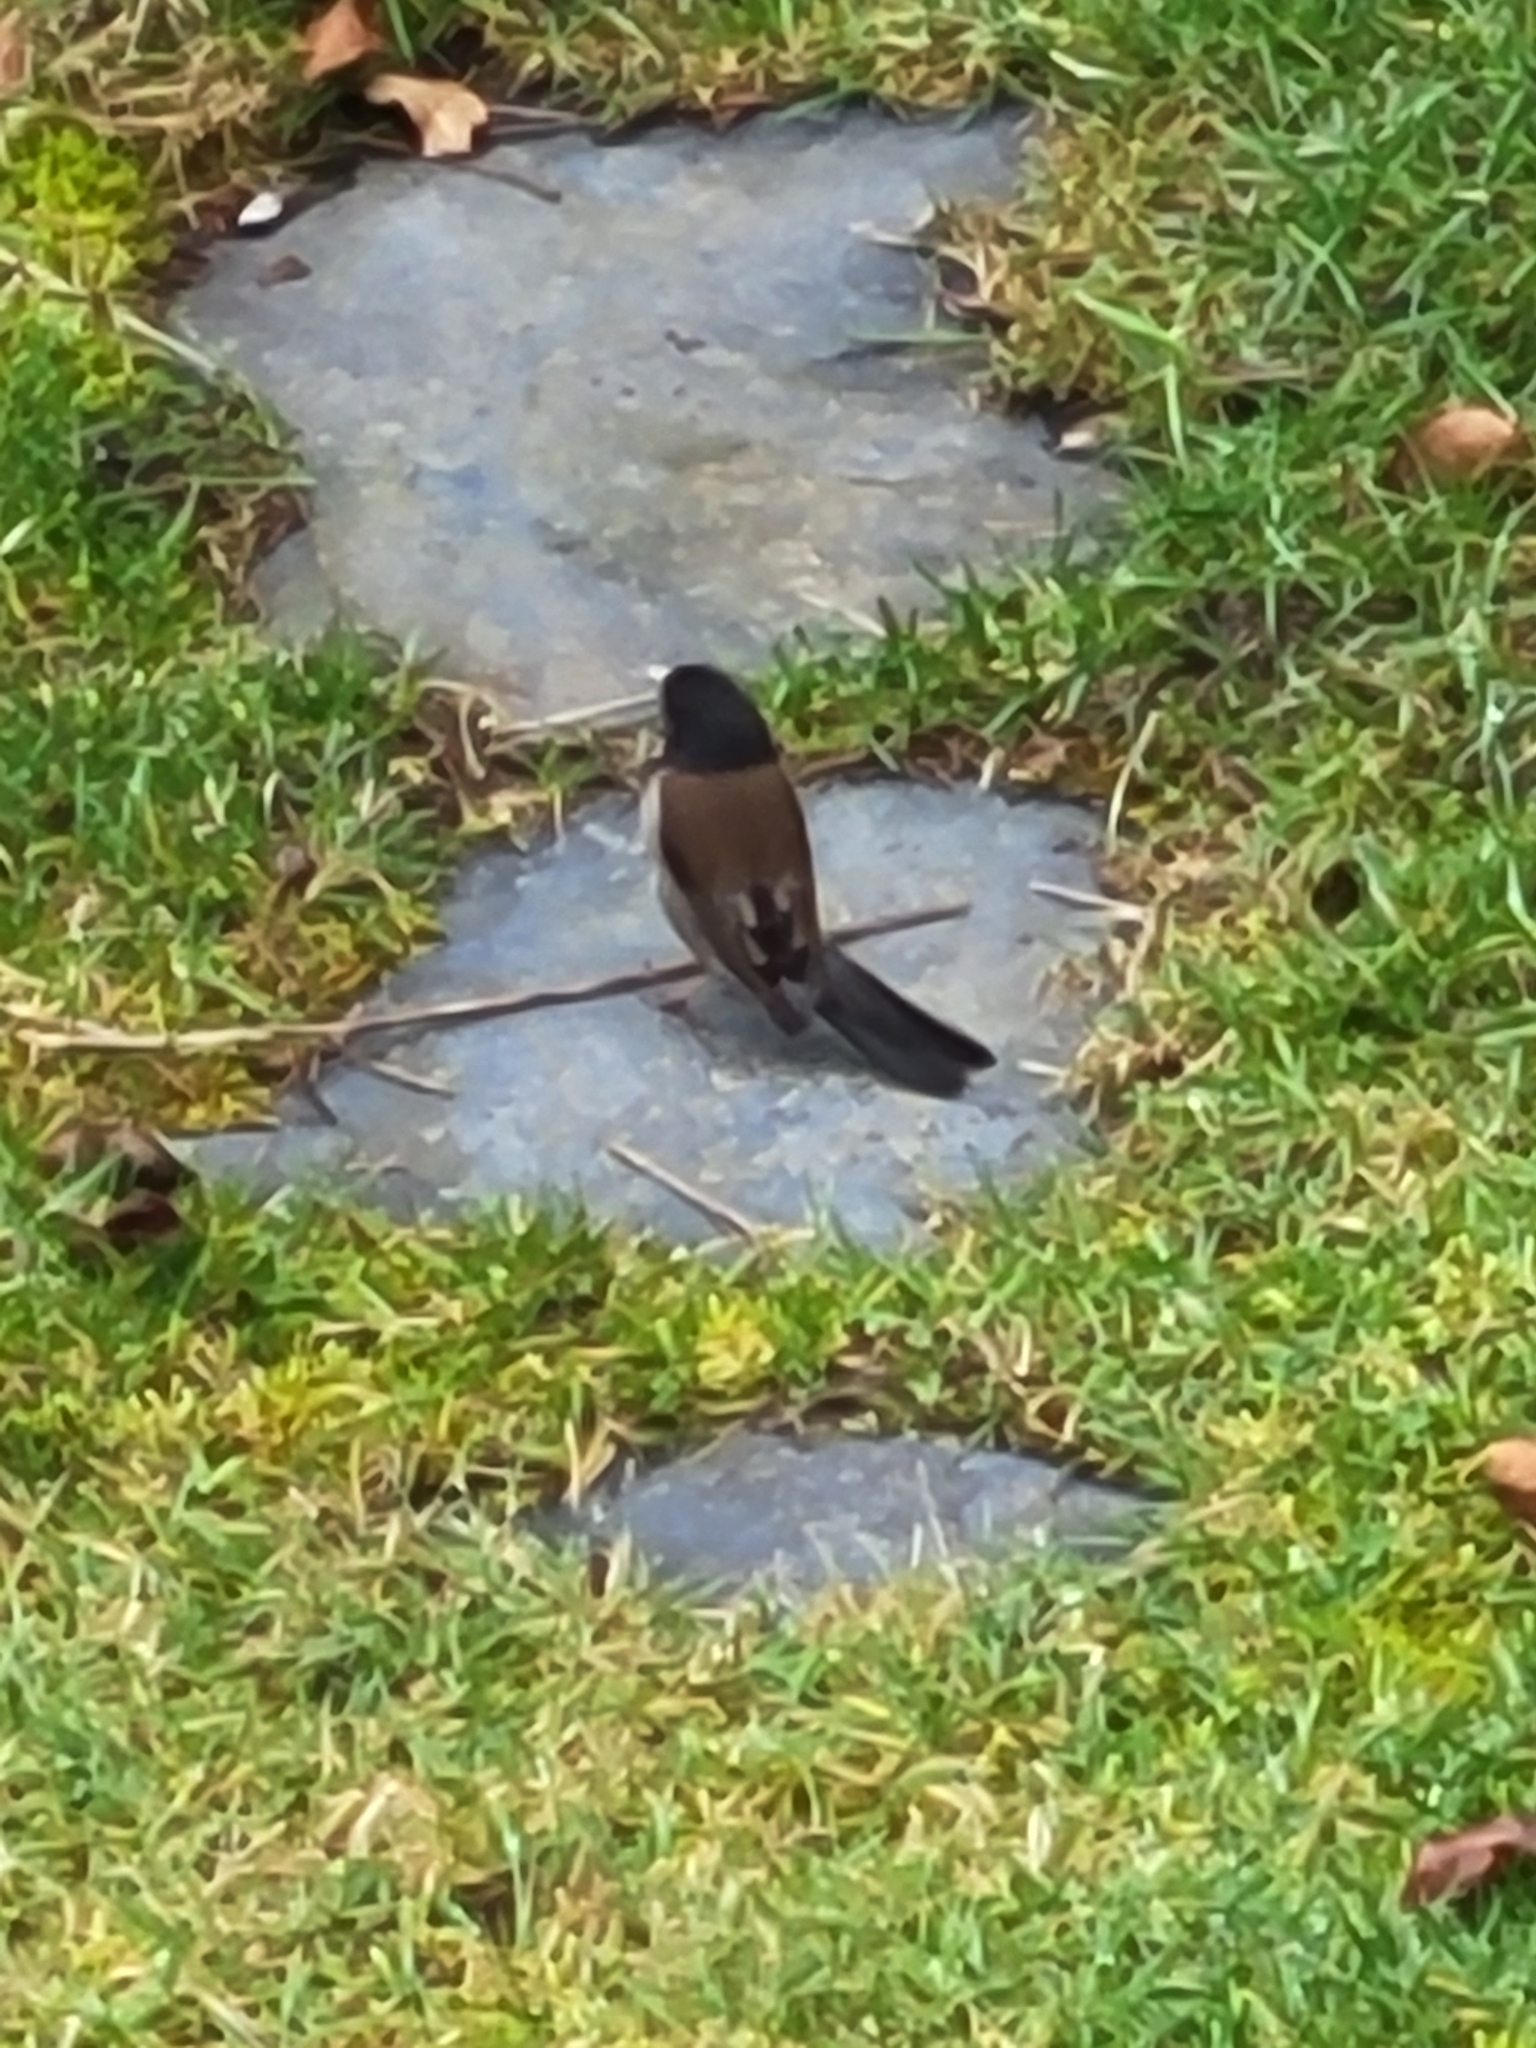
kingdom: Animalia
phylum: Chordata
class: Aves
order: Passeriformes
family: Passerellidae
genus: Junco
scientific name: Junco hyemalis
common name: Dark-eyed junco
